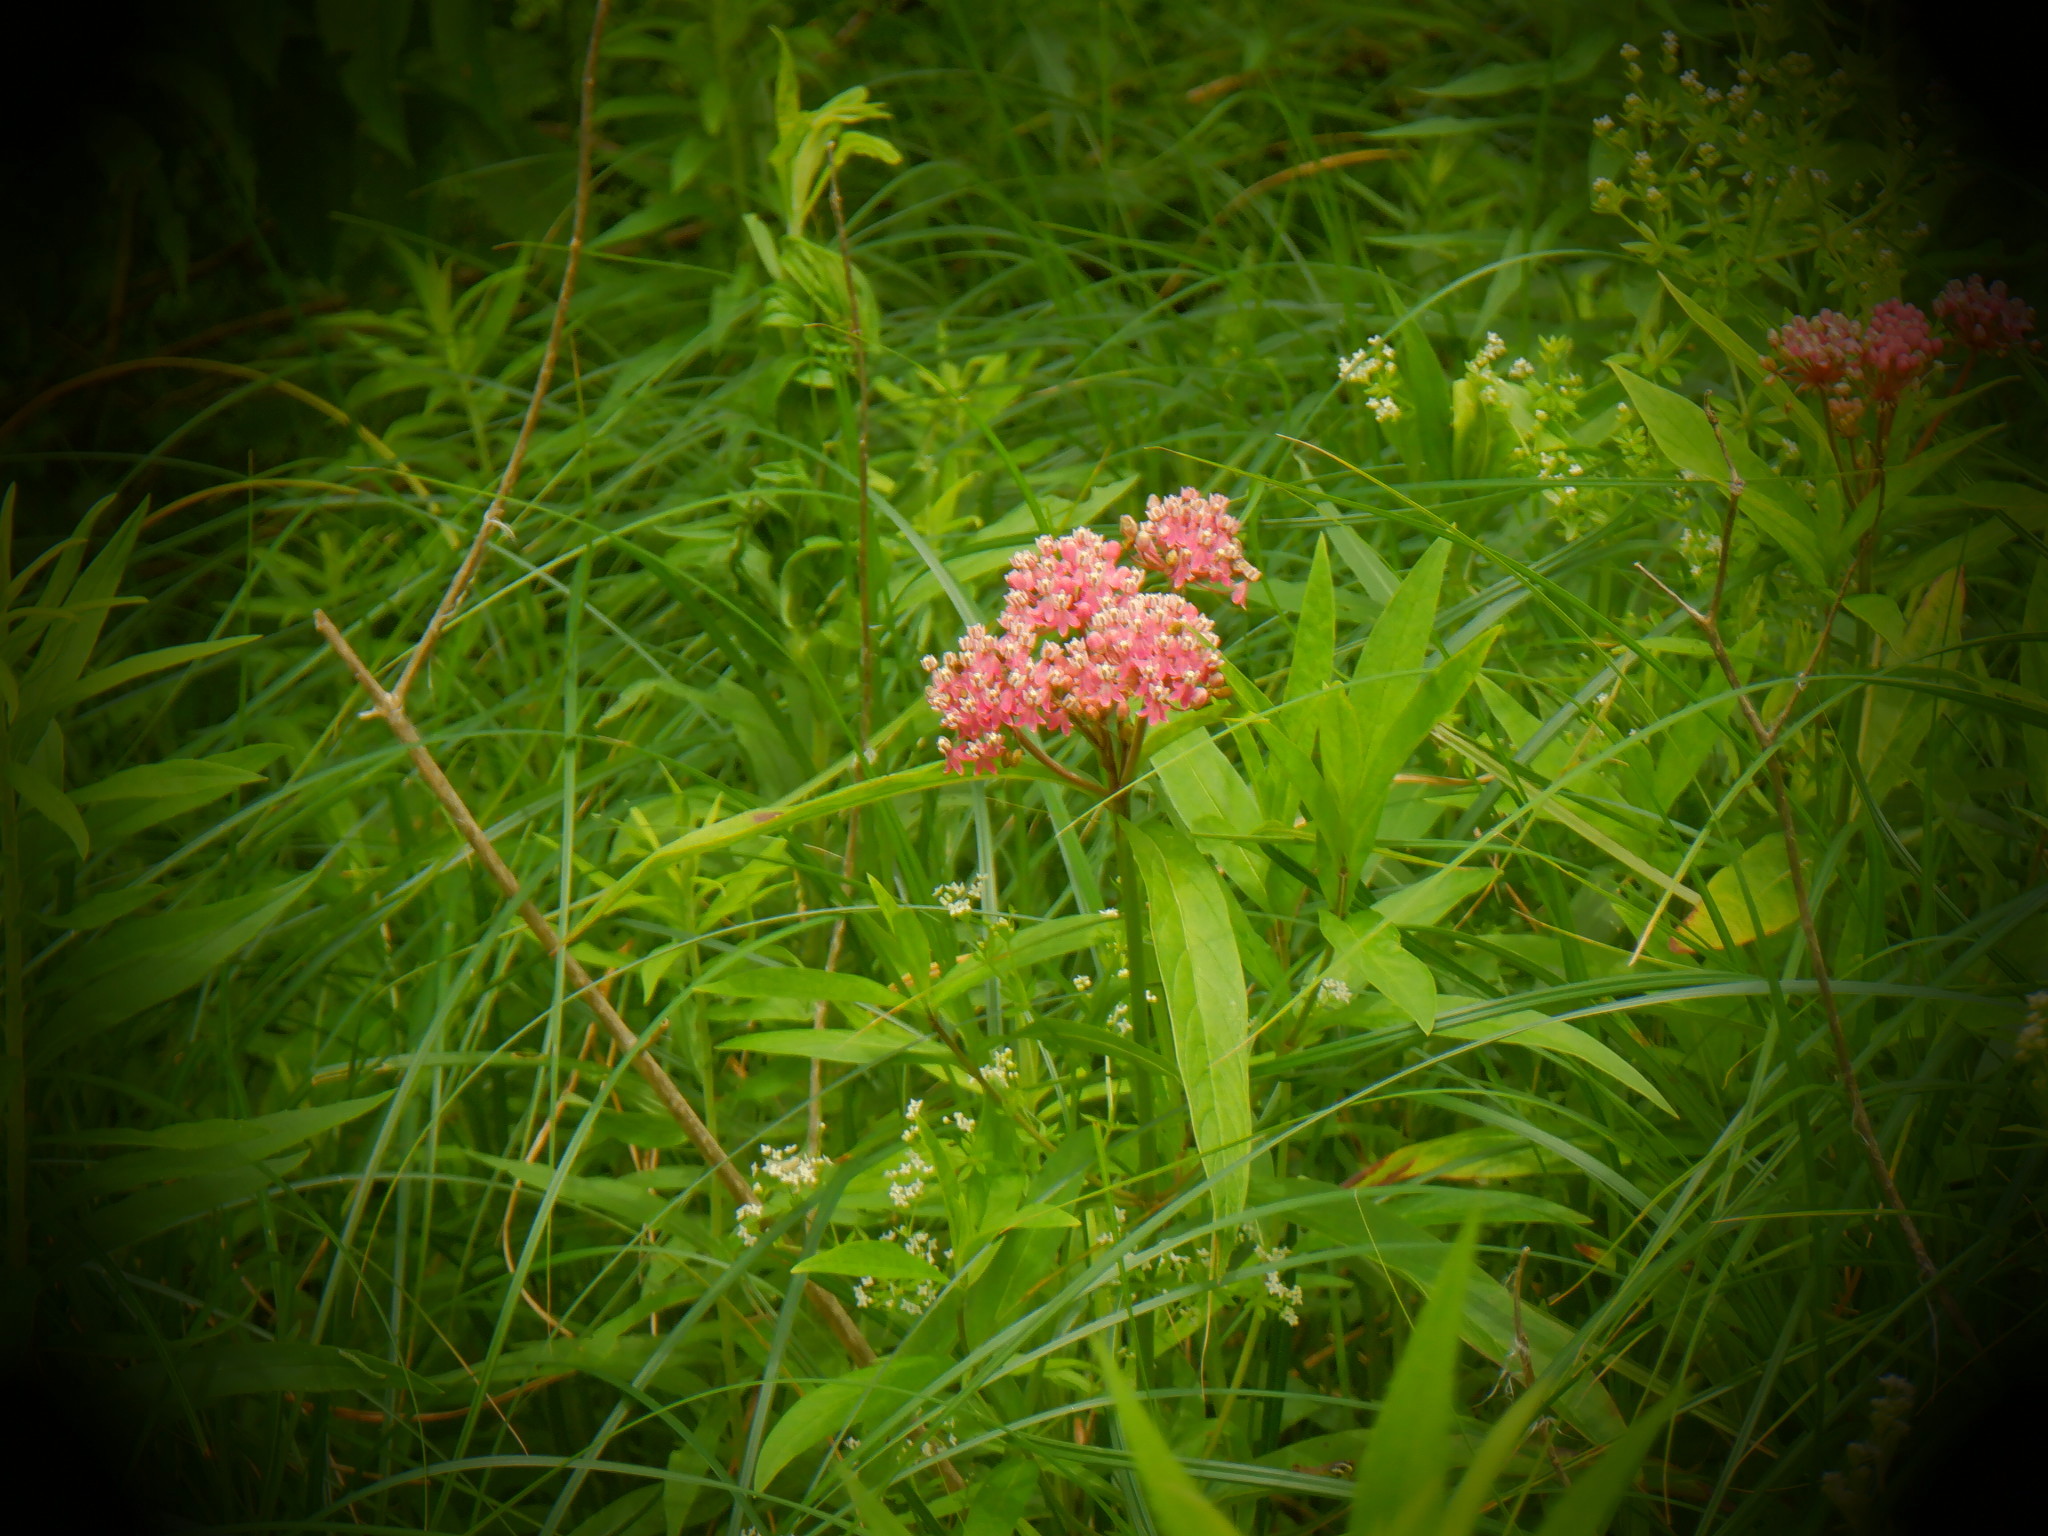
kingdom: Plantae
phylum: Tracheophyta
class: Magnoliopsida
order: Gentianales
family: Apocynaceae
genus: Asclepias
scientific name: Asclepias incarnata
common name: Swamp milkweed
